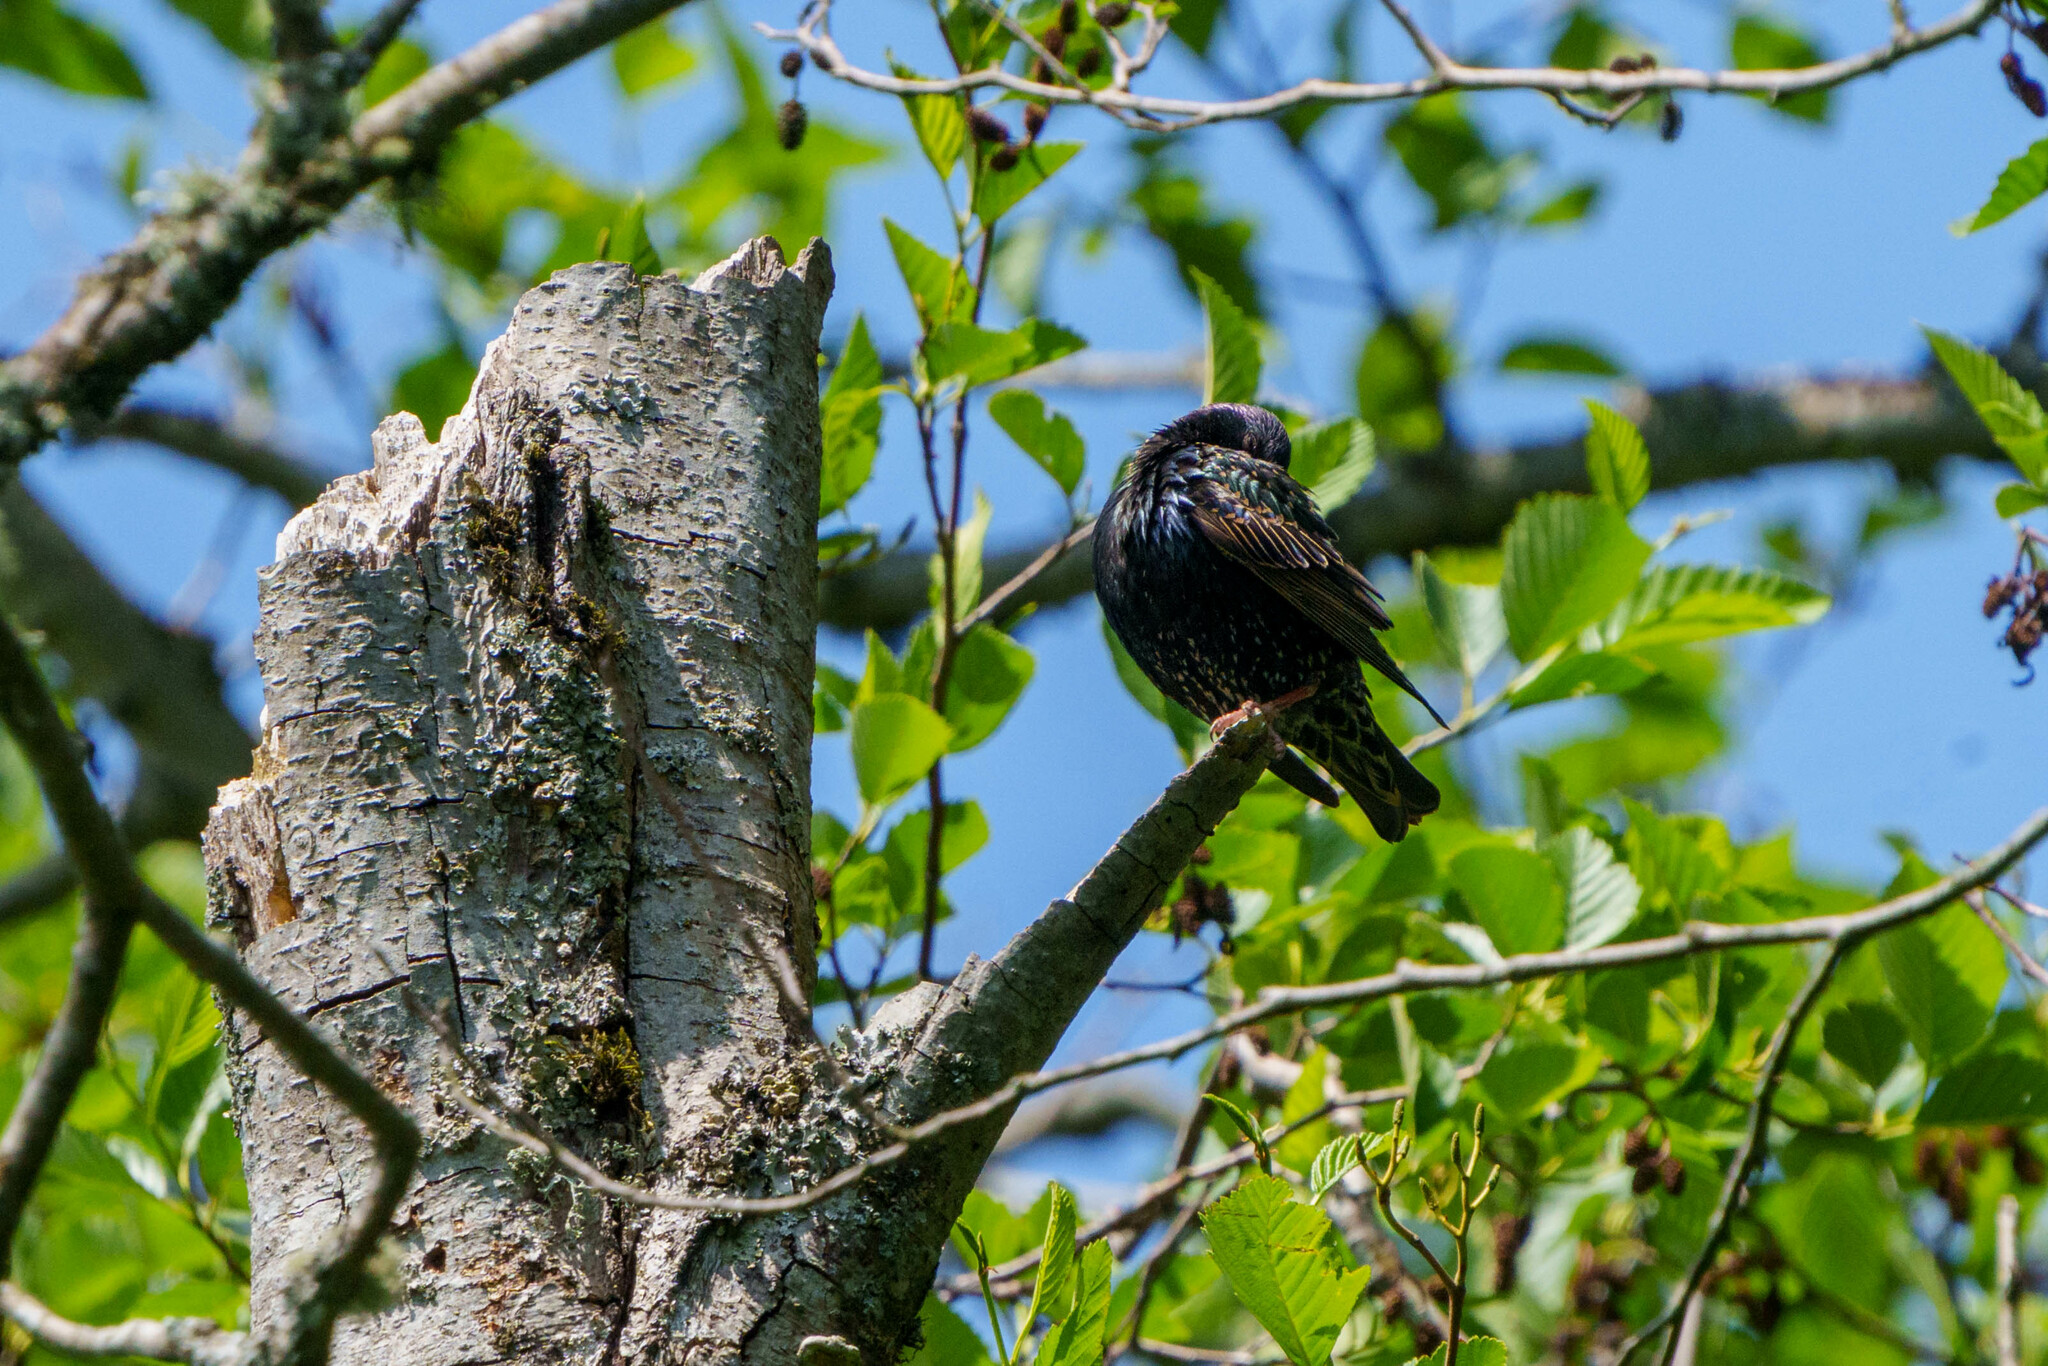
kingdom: Animalia
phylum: Chordata
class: Aves
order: Passeriformes
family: Sturnidae
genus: Sturnus
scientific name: Sturnus vulgaris
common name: Common starling
